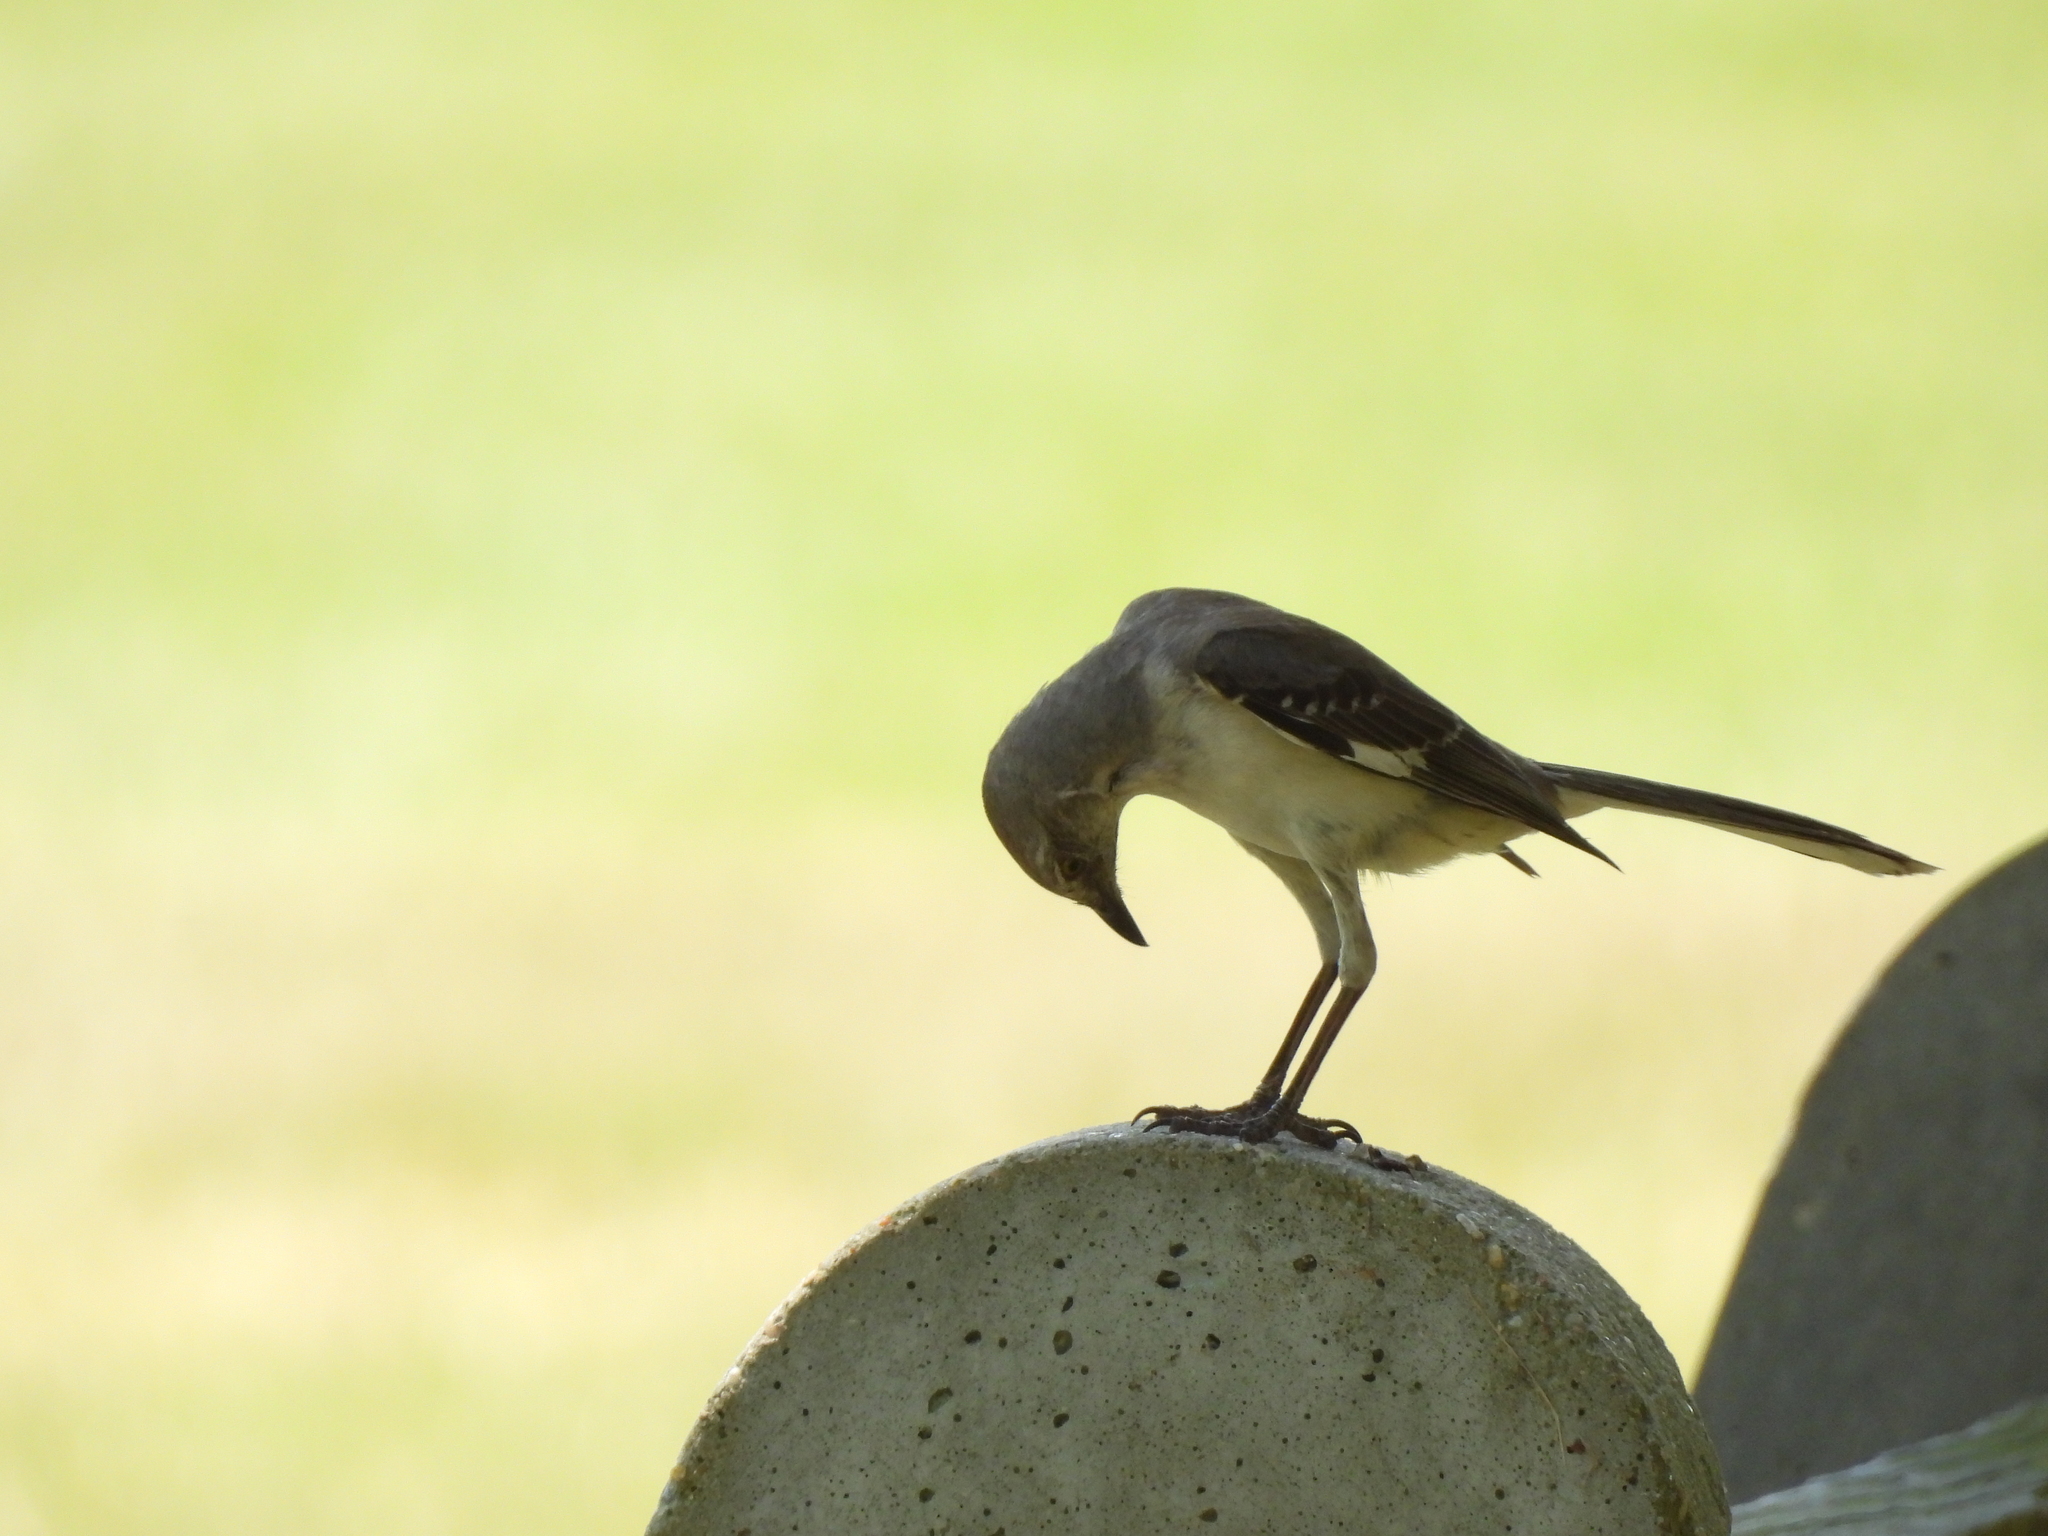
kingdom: Animalia
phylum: Chordata
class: Aves
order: Passeriformes
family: Mimidae
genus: Mimus
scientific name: Mimus polyglottos
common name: Northern mockingbird
